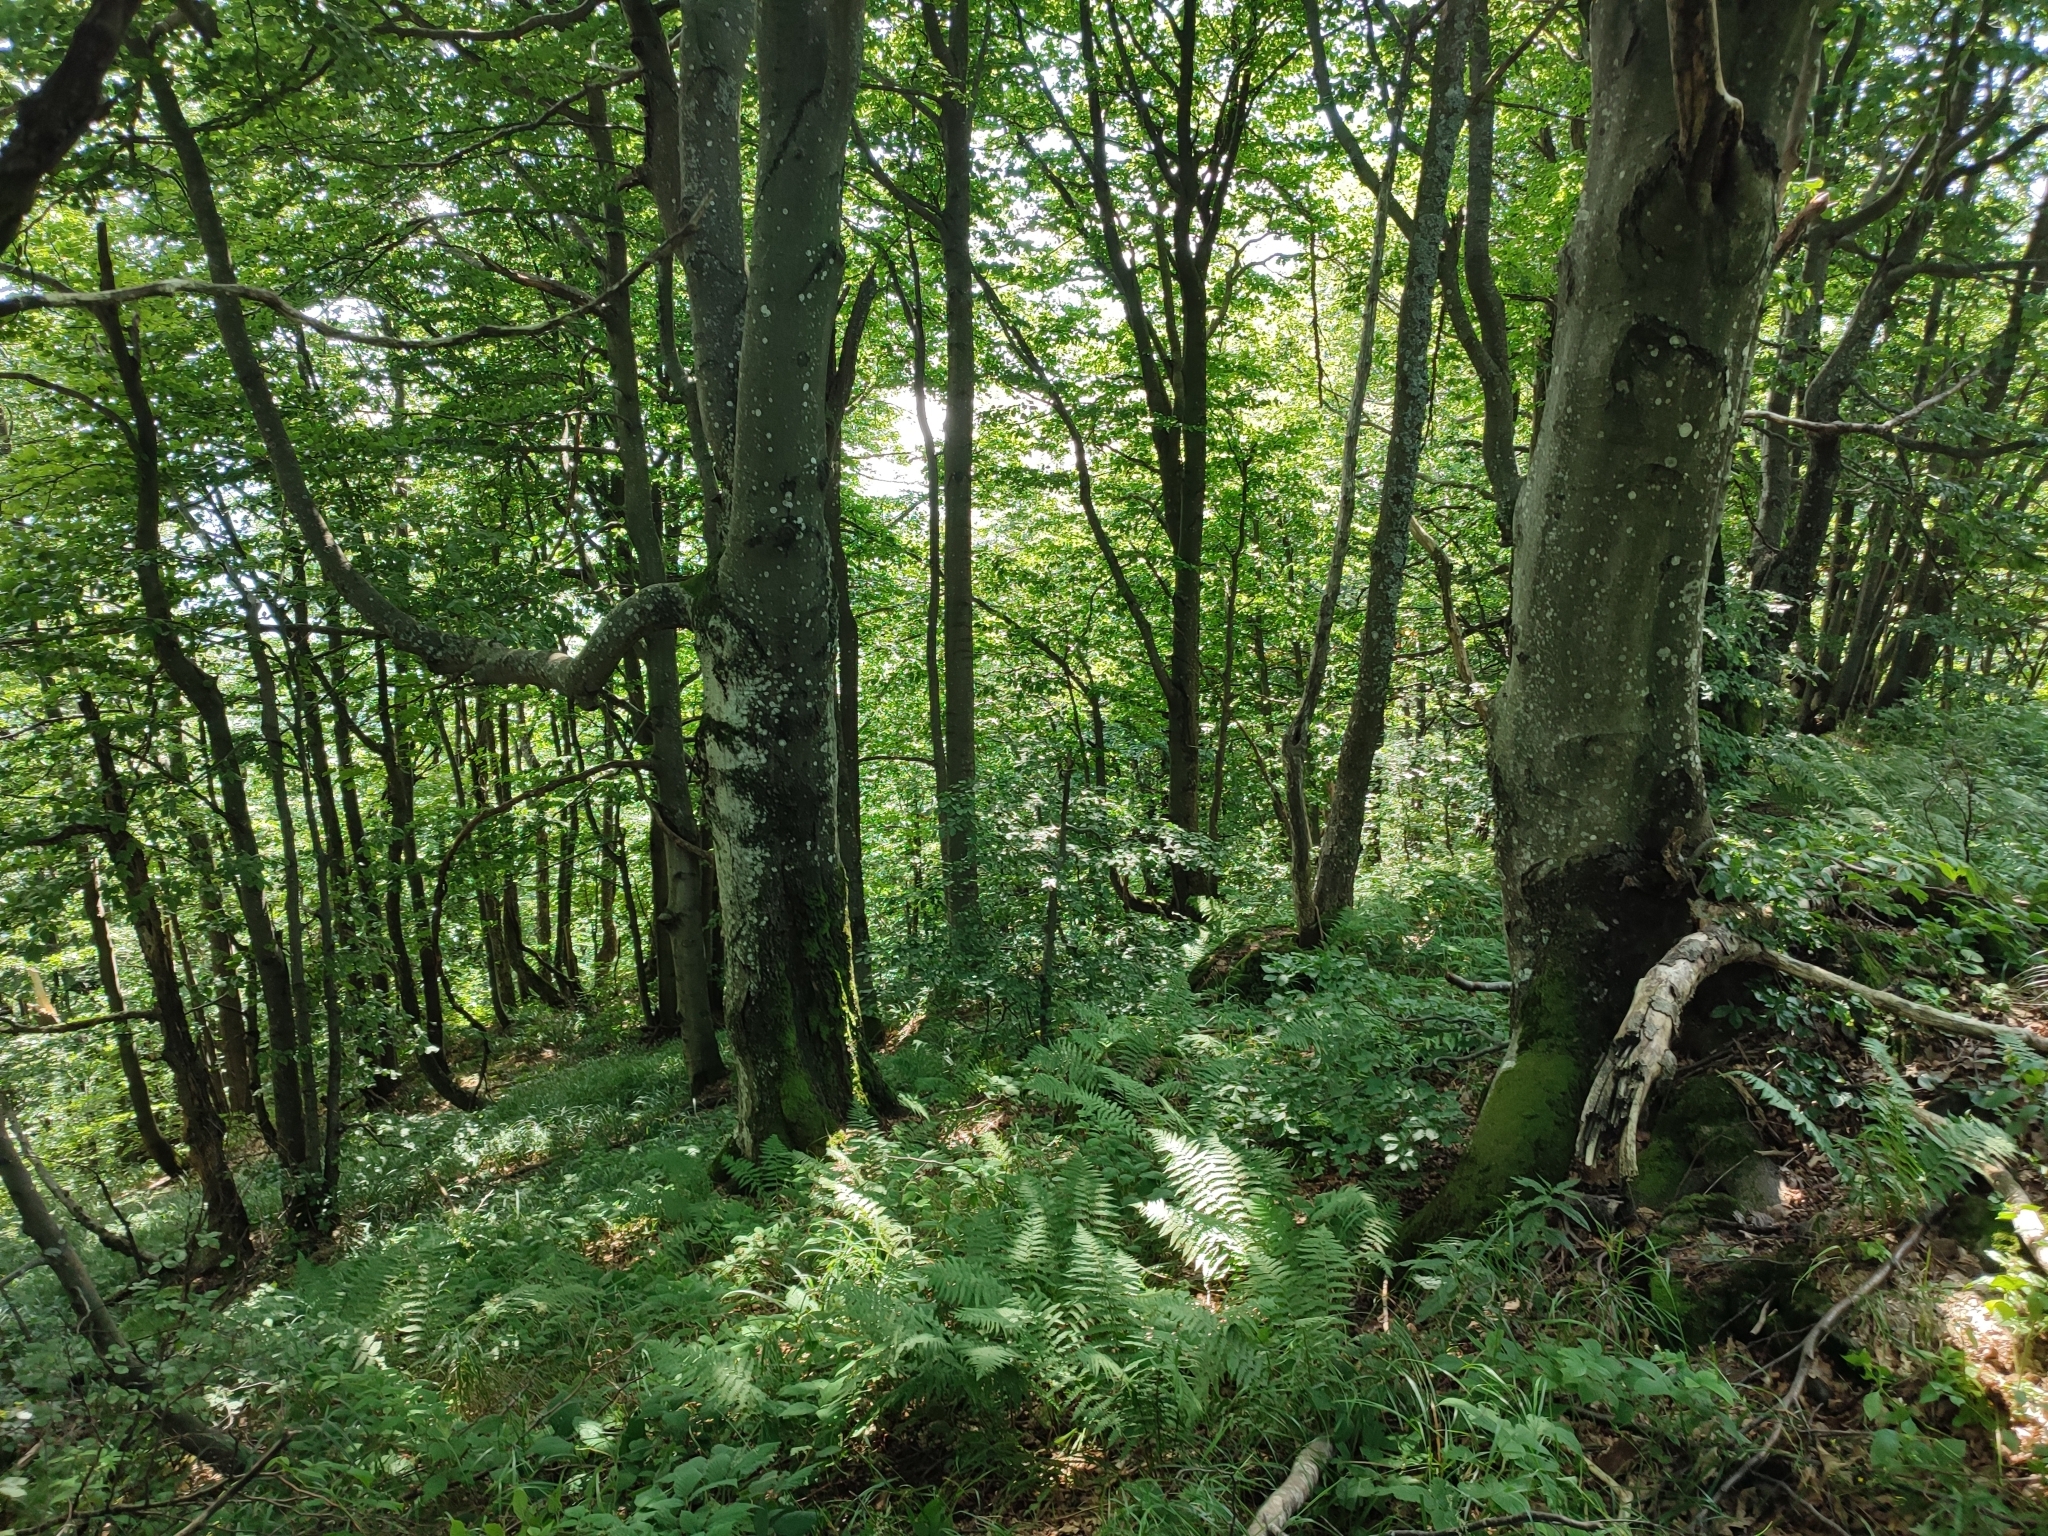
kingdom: Plantae
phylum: Tracheophyta
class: Magnoliopsida
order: Fagales
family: Fagaceae
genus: Fagus
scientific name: Fagus sylvatica
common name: Beech
